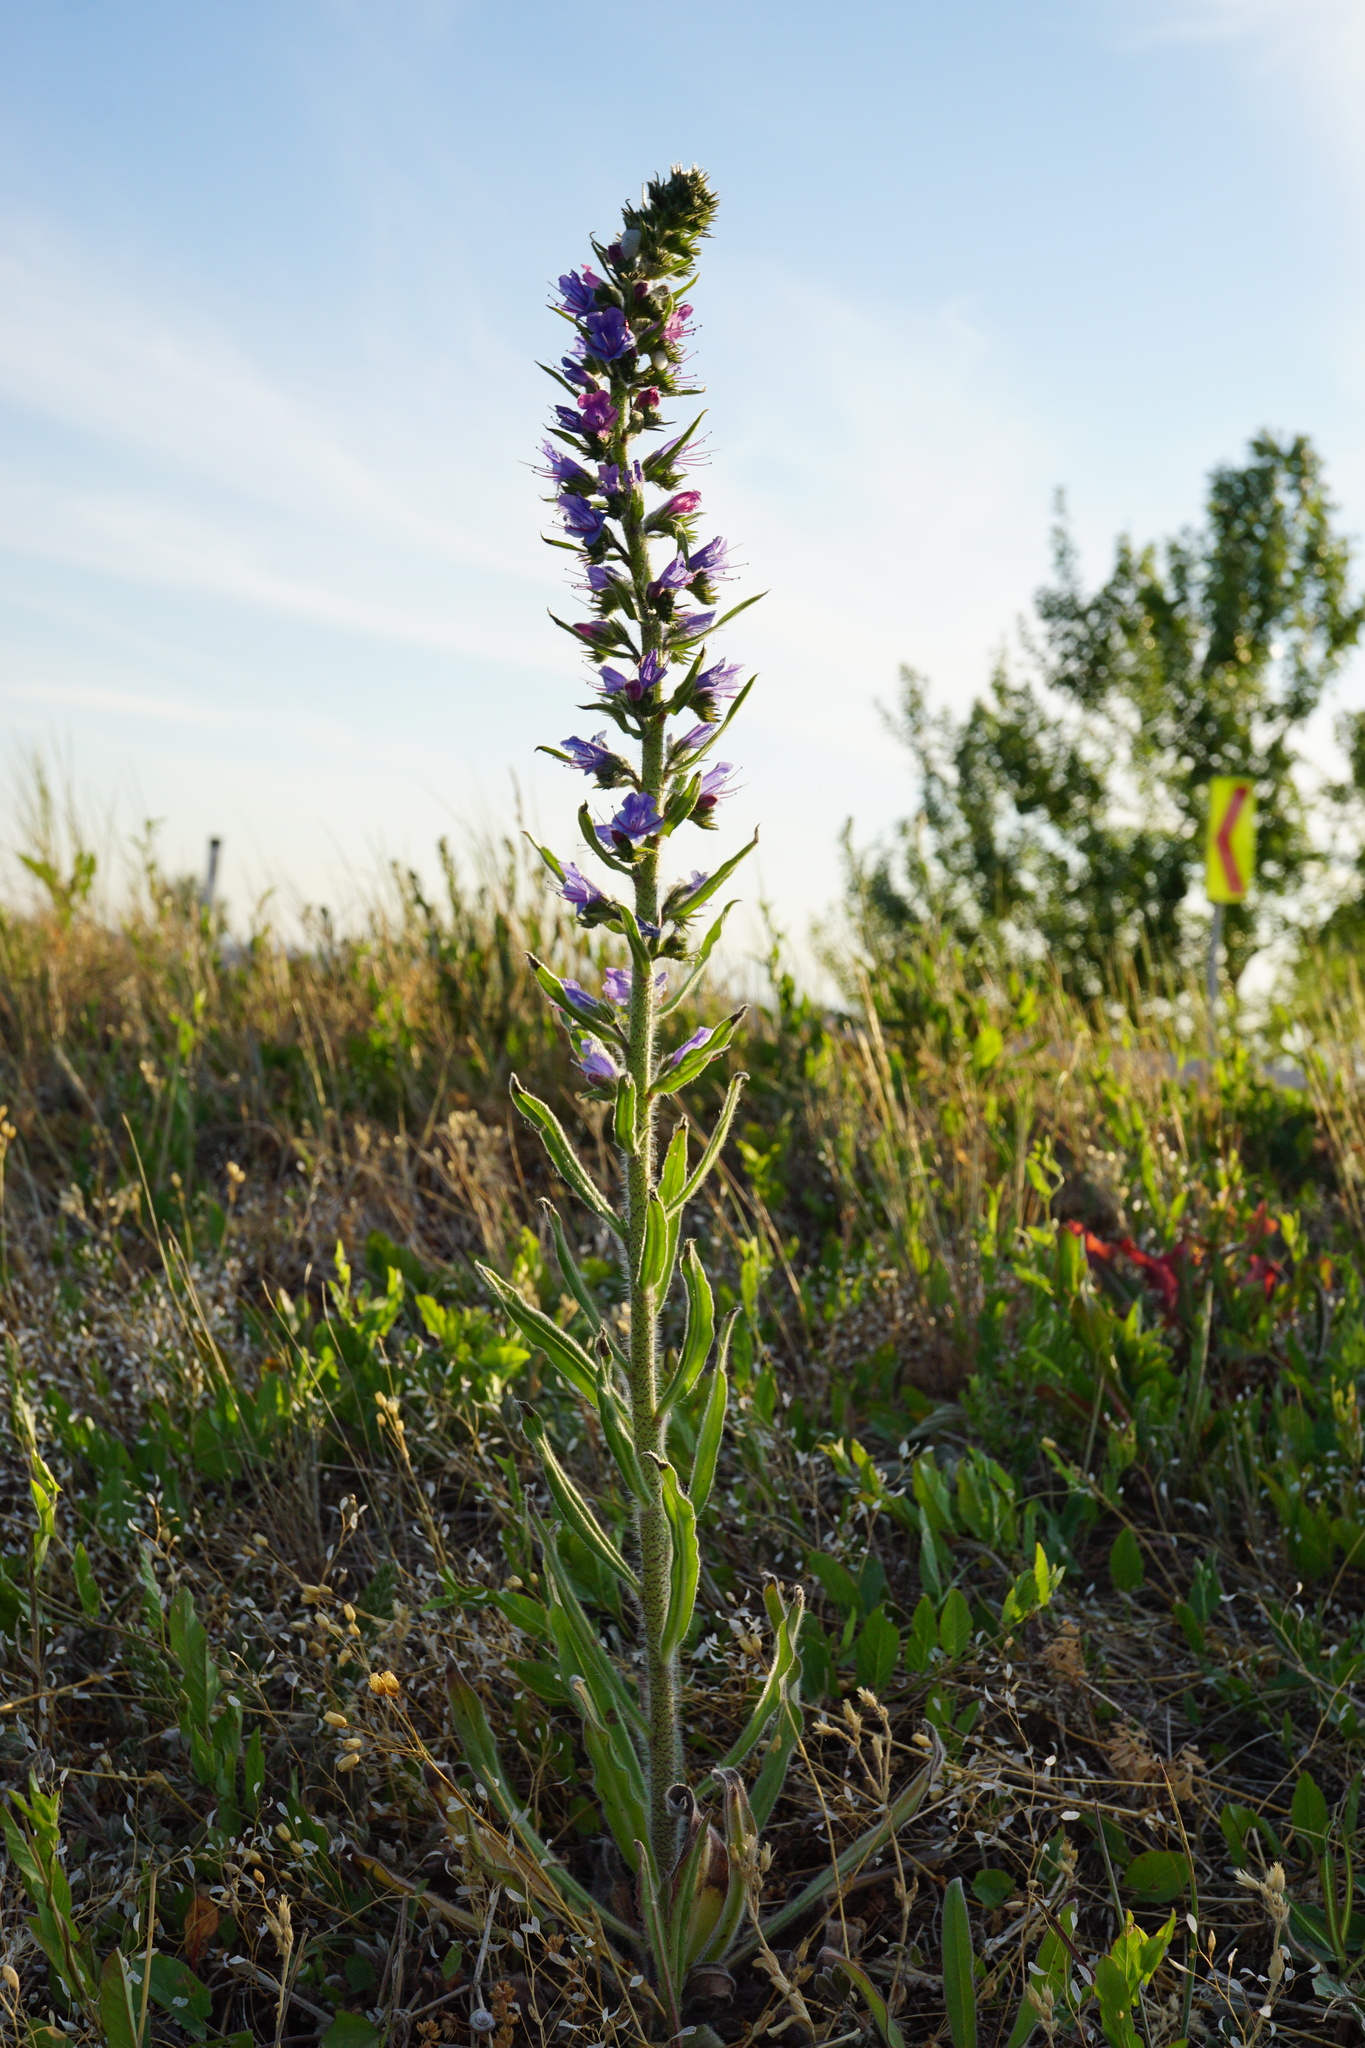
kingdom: Plantae
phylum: Tracheophyta
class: Magnoliopsida
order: Boraginales
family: Boraginaceae
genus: Echium
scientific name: Echium vulgare
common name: Common viper's bugloss
